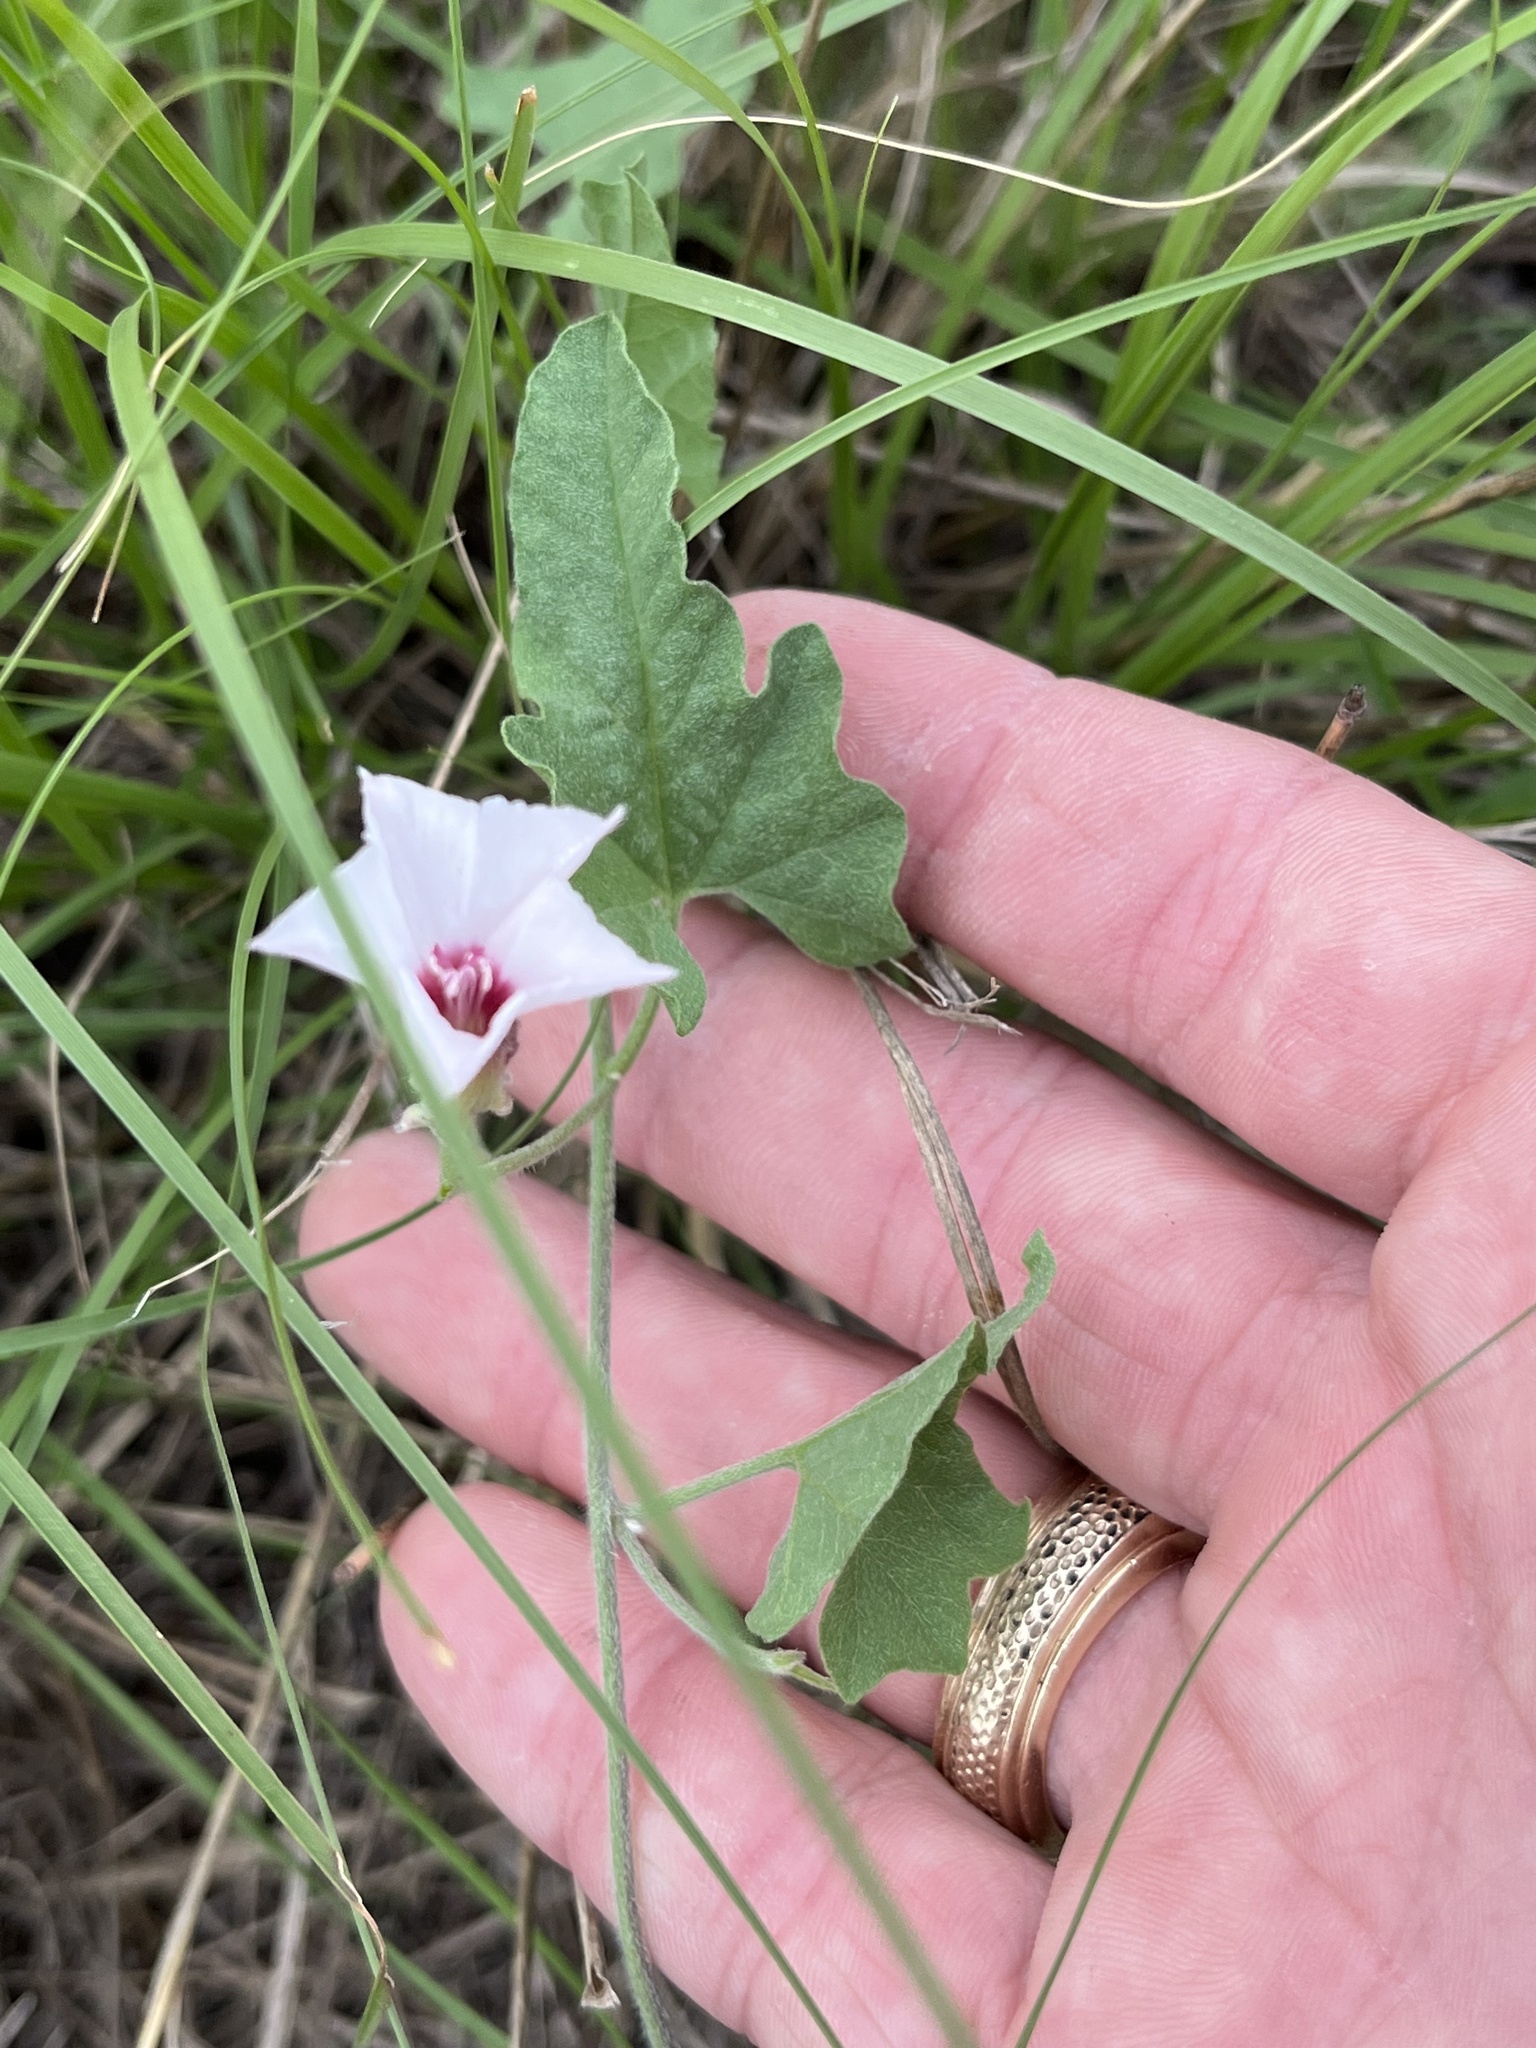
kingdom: Plantae
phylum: Tracheophyta
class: Magnoliopsida
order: Solanales
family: Convolvulaceae
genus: Convolvulus
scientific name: Convolvulus equitans
